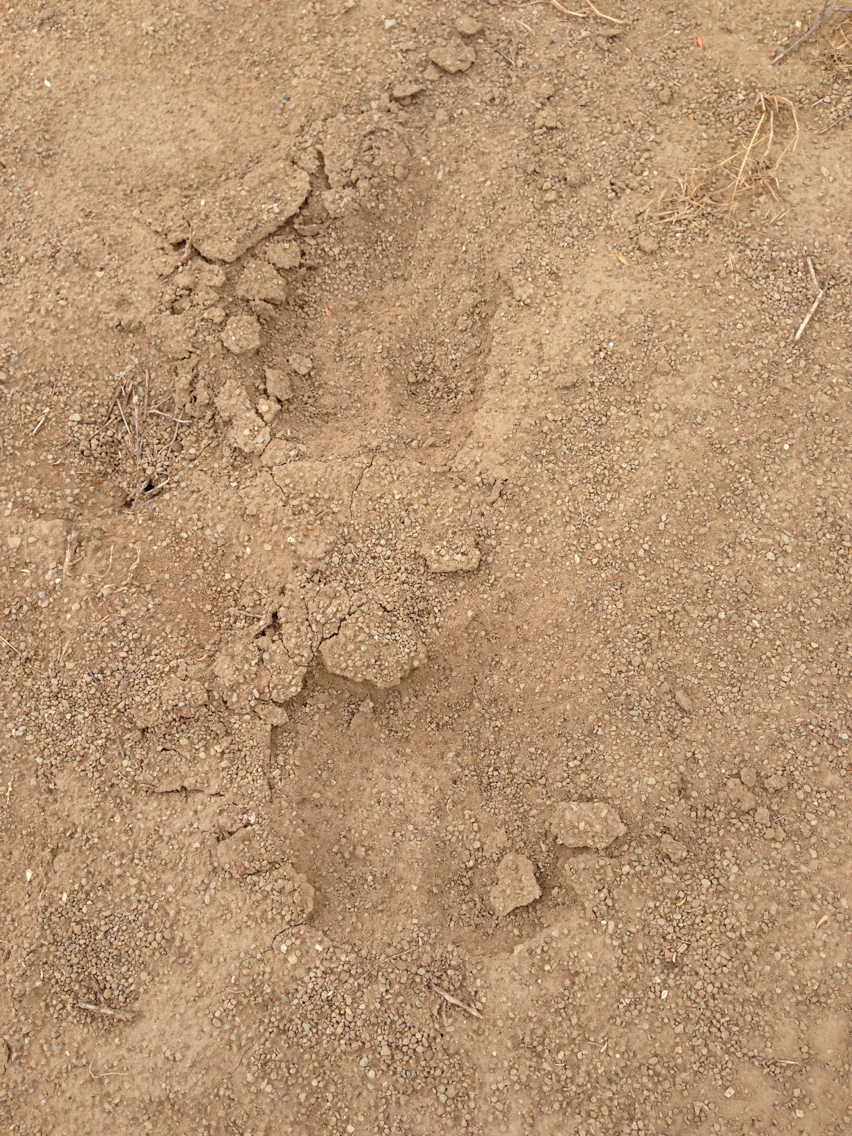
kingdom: Animalia
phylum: Chordata
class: Mammalia
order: Perissodactyla
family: Equidae
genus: Equus
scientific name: Equus caballus
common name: Horse
